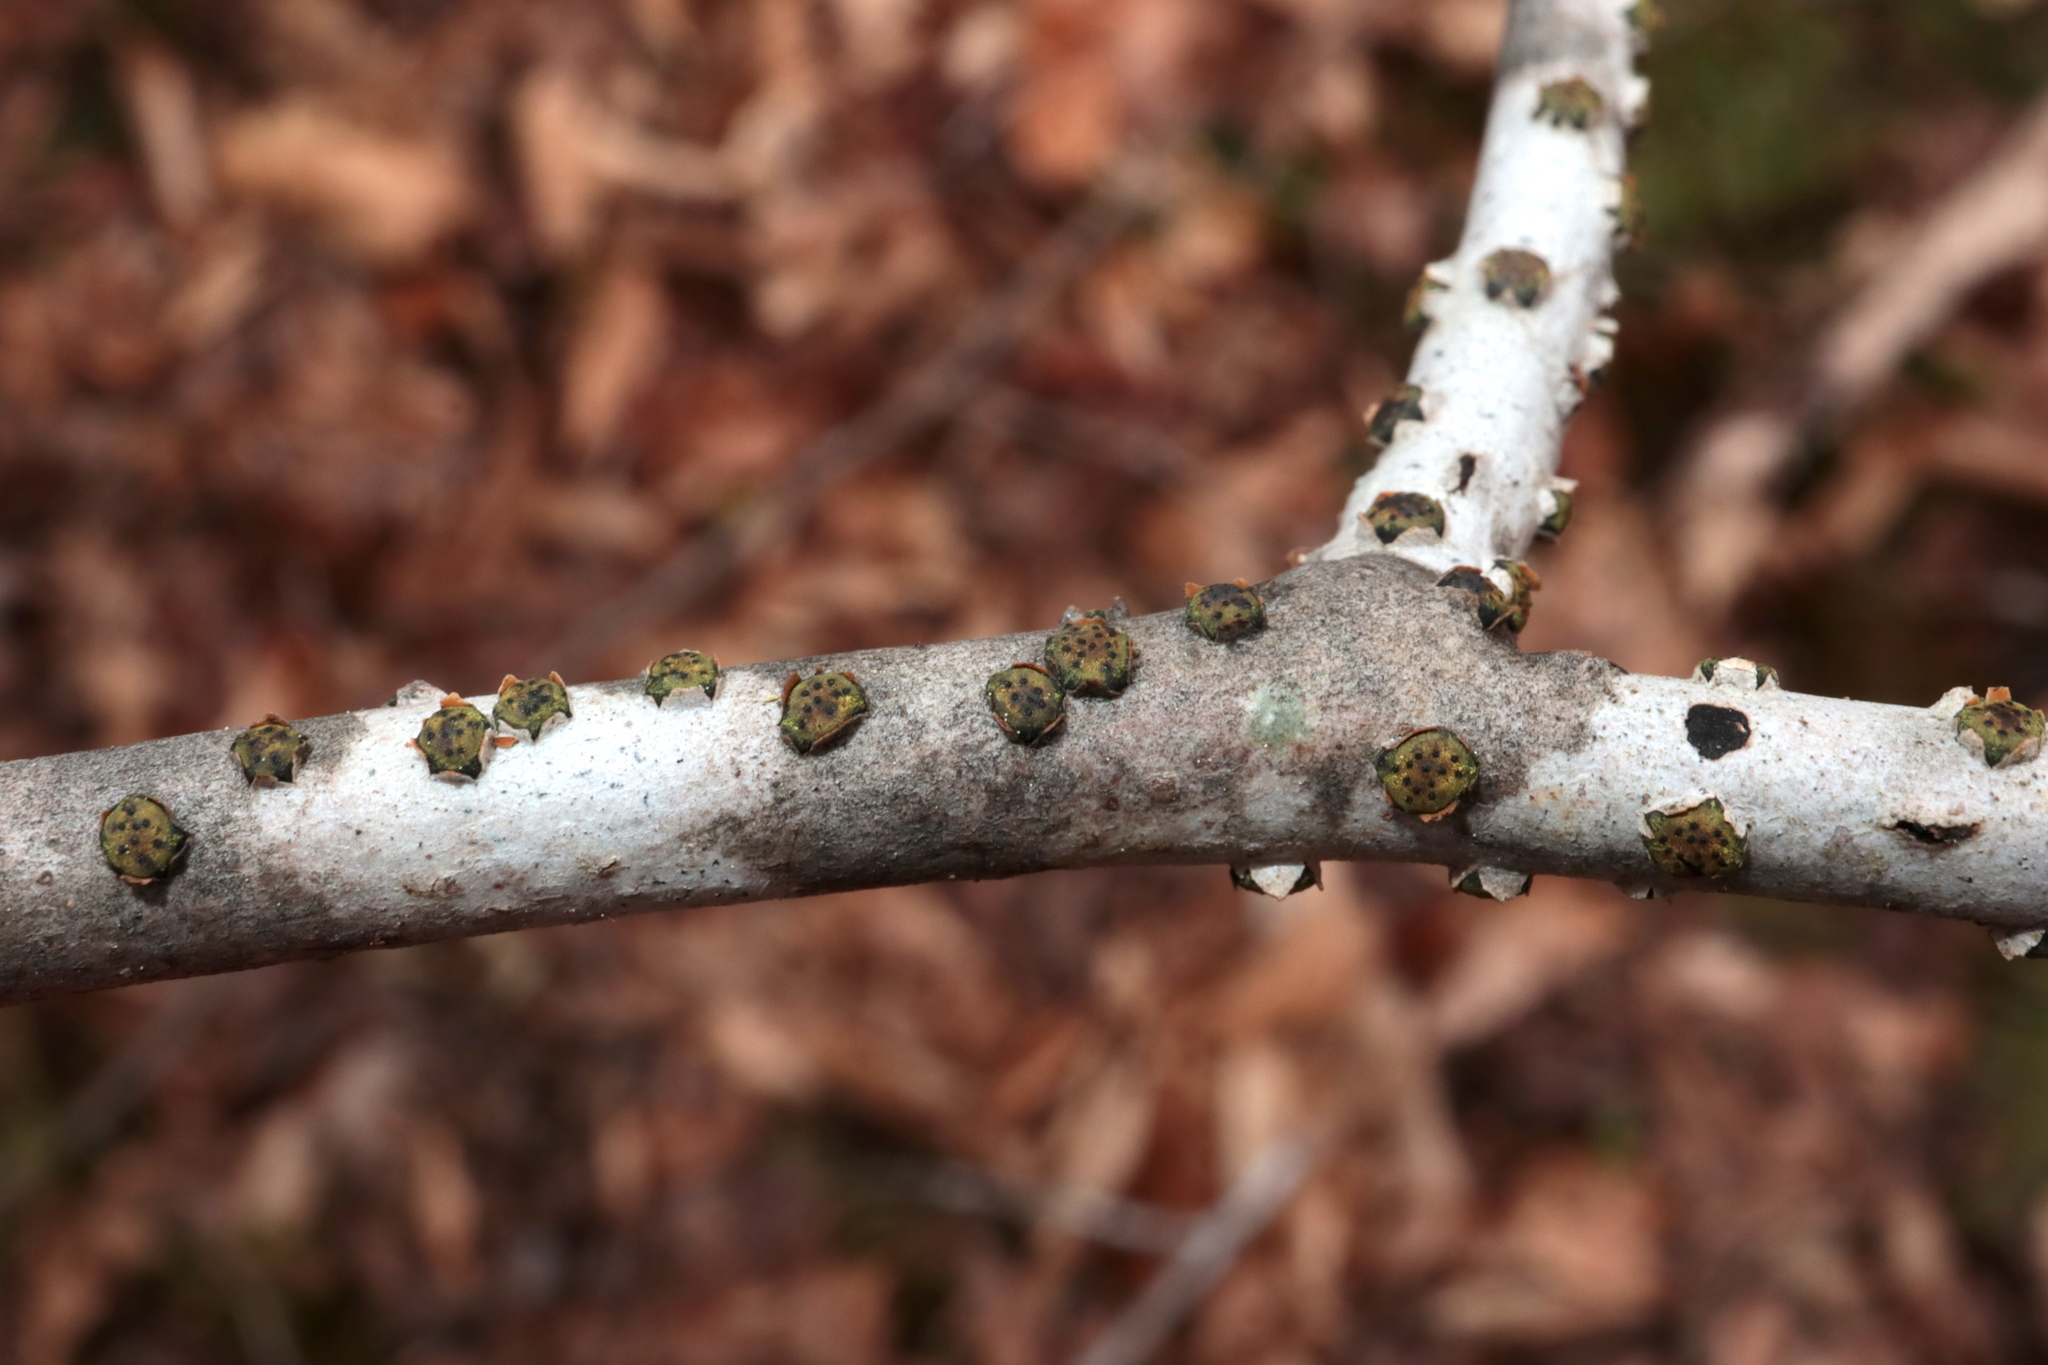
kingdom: Fungi
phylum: Ascomycota
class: Sordariomycetes
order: Xylariales
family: Diatrypaceae
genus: Diatrype
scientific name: Diatrype virescens
